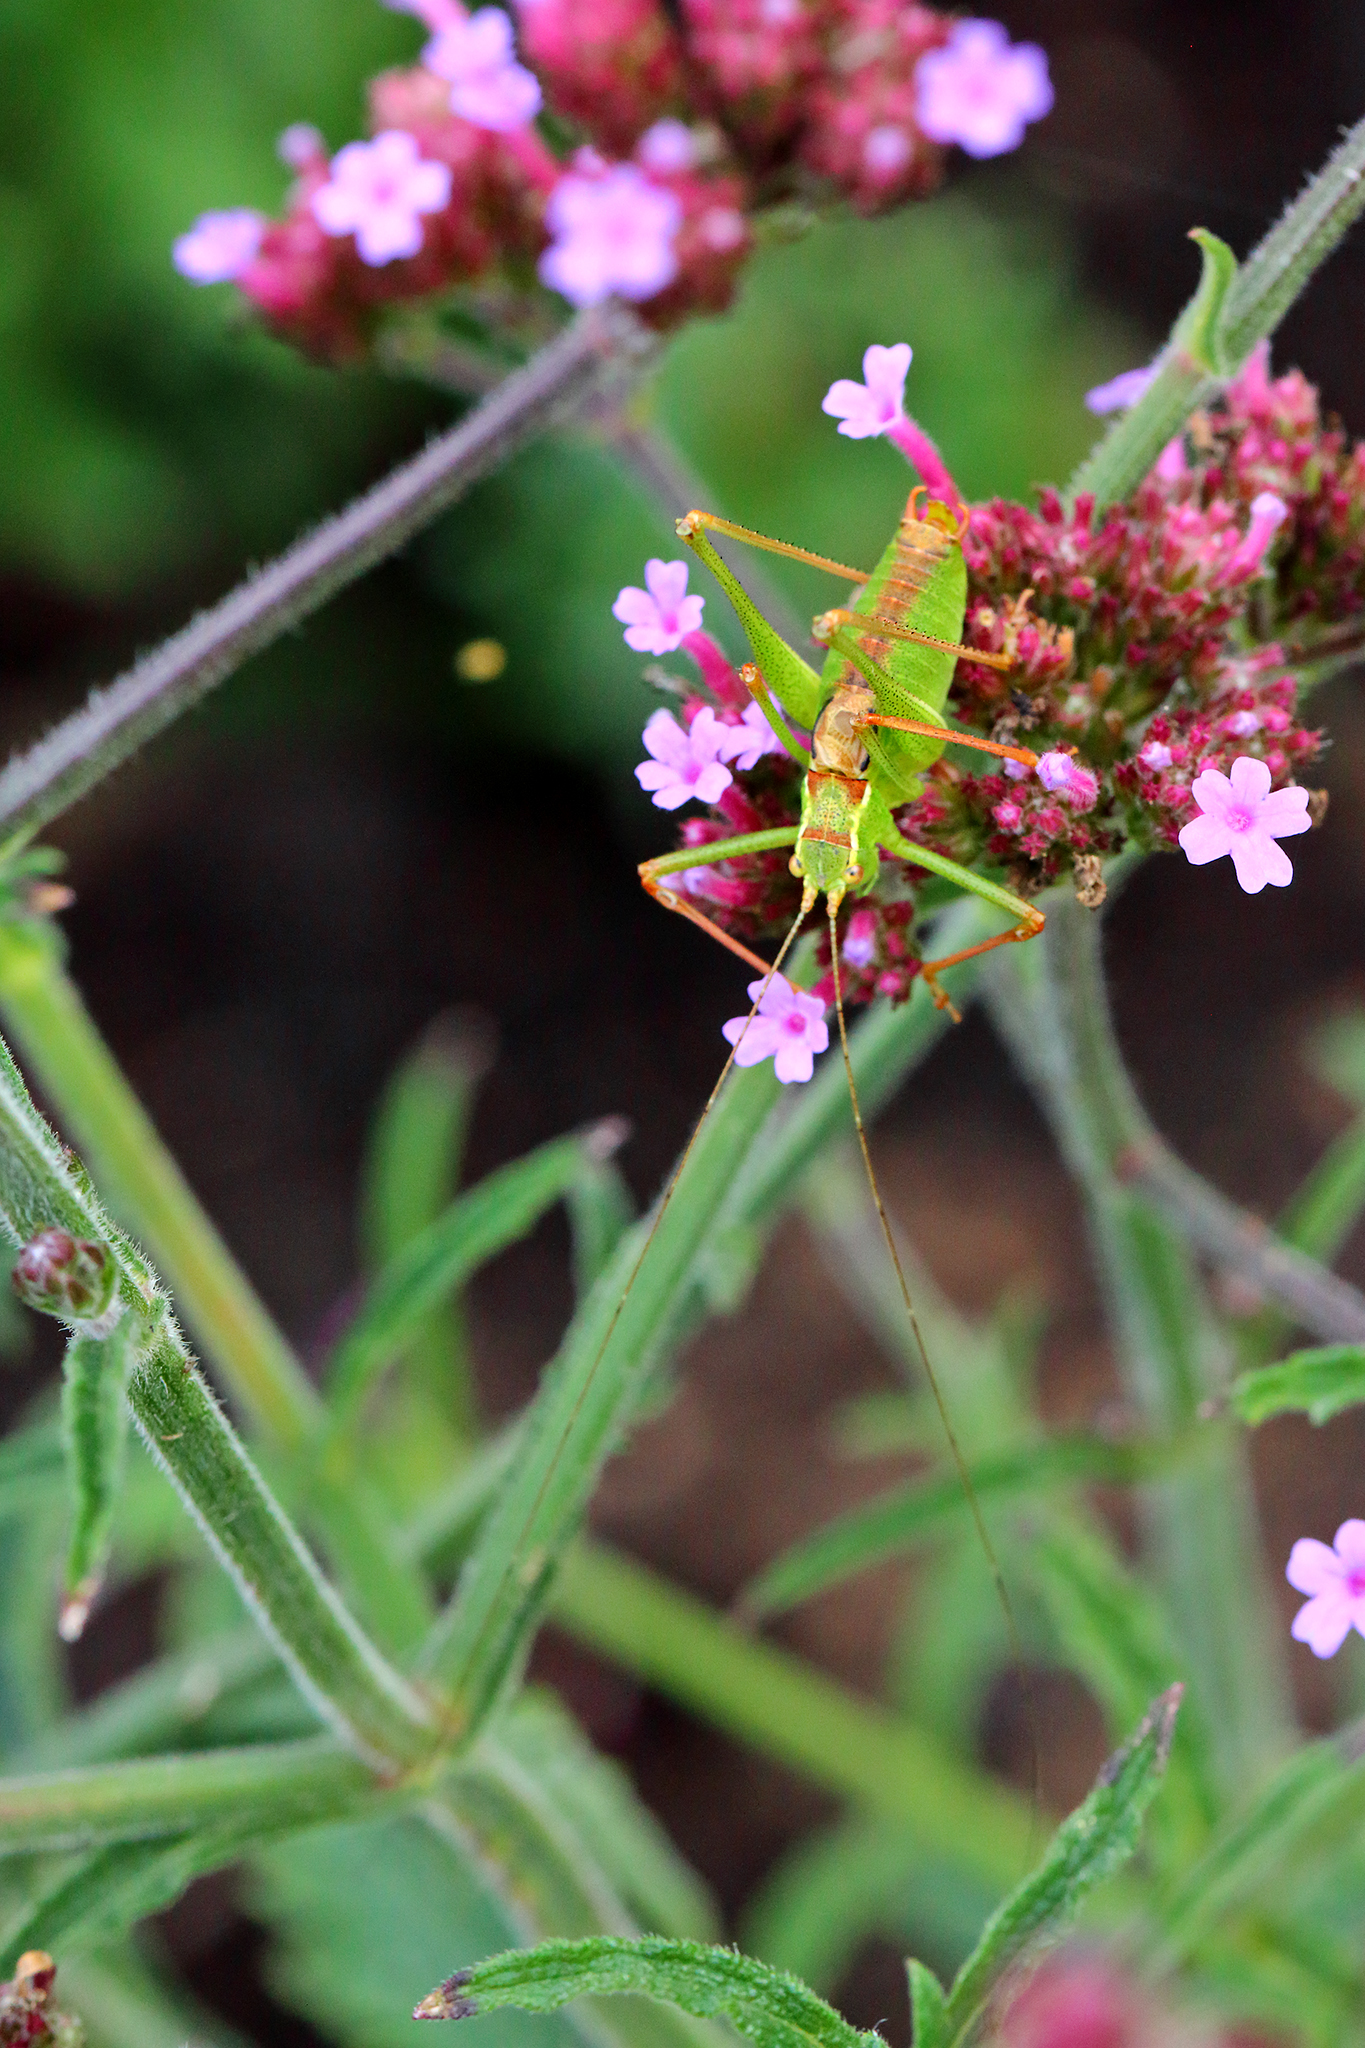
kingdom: Animalia
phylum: Arthropoda
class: Insecta
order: Orthoptera
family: Tettigoniidae
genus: Leptophyes
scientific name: Leptophyes punctatissima
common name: Speckled bush-cricket
